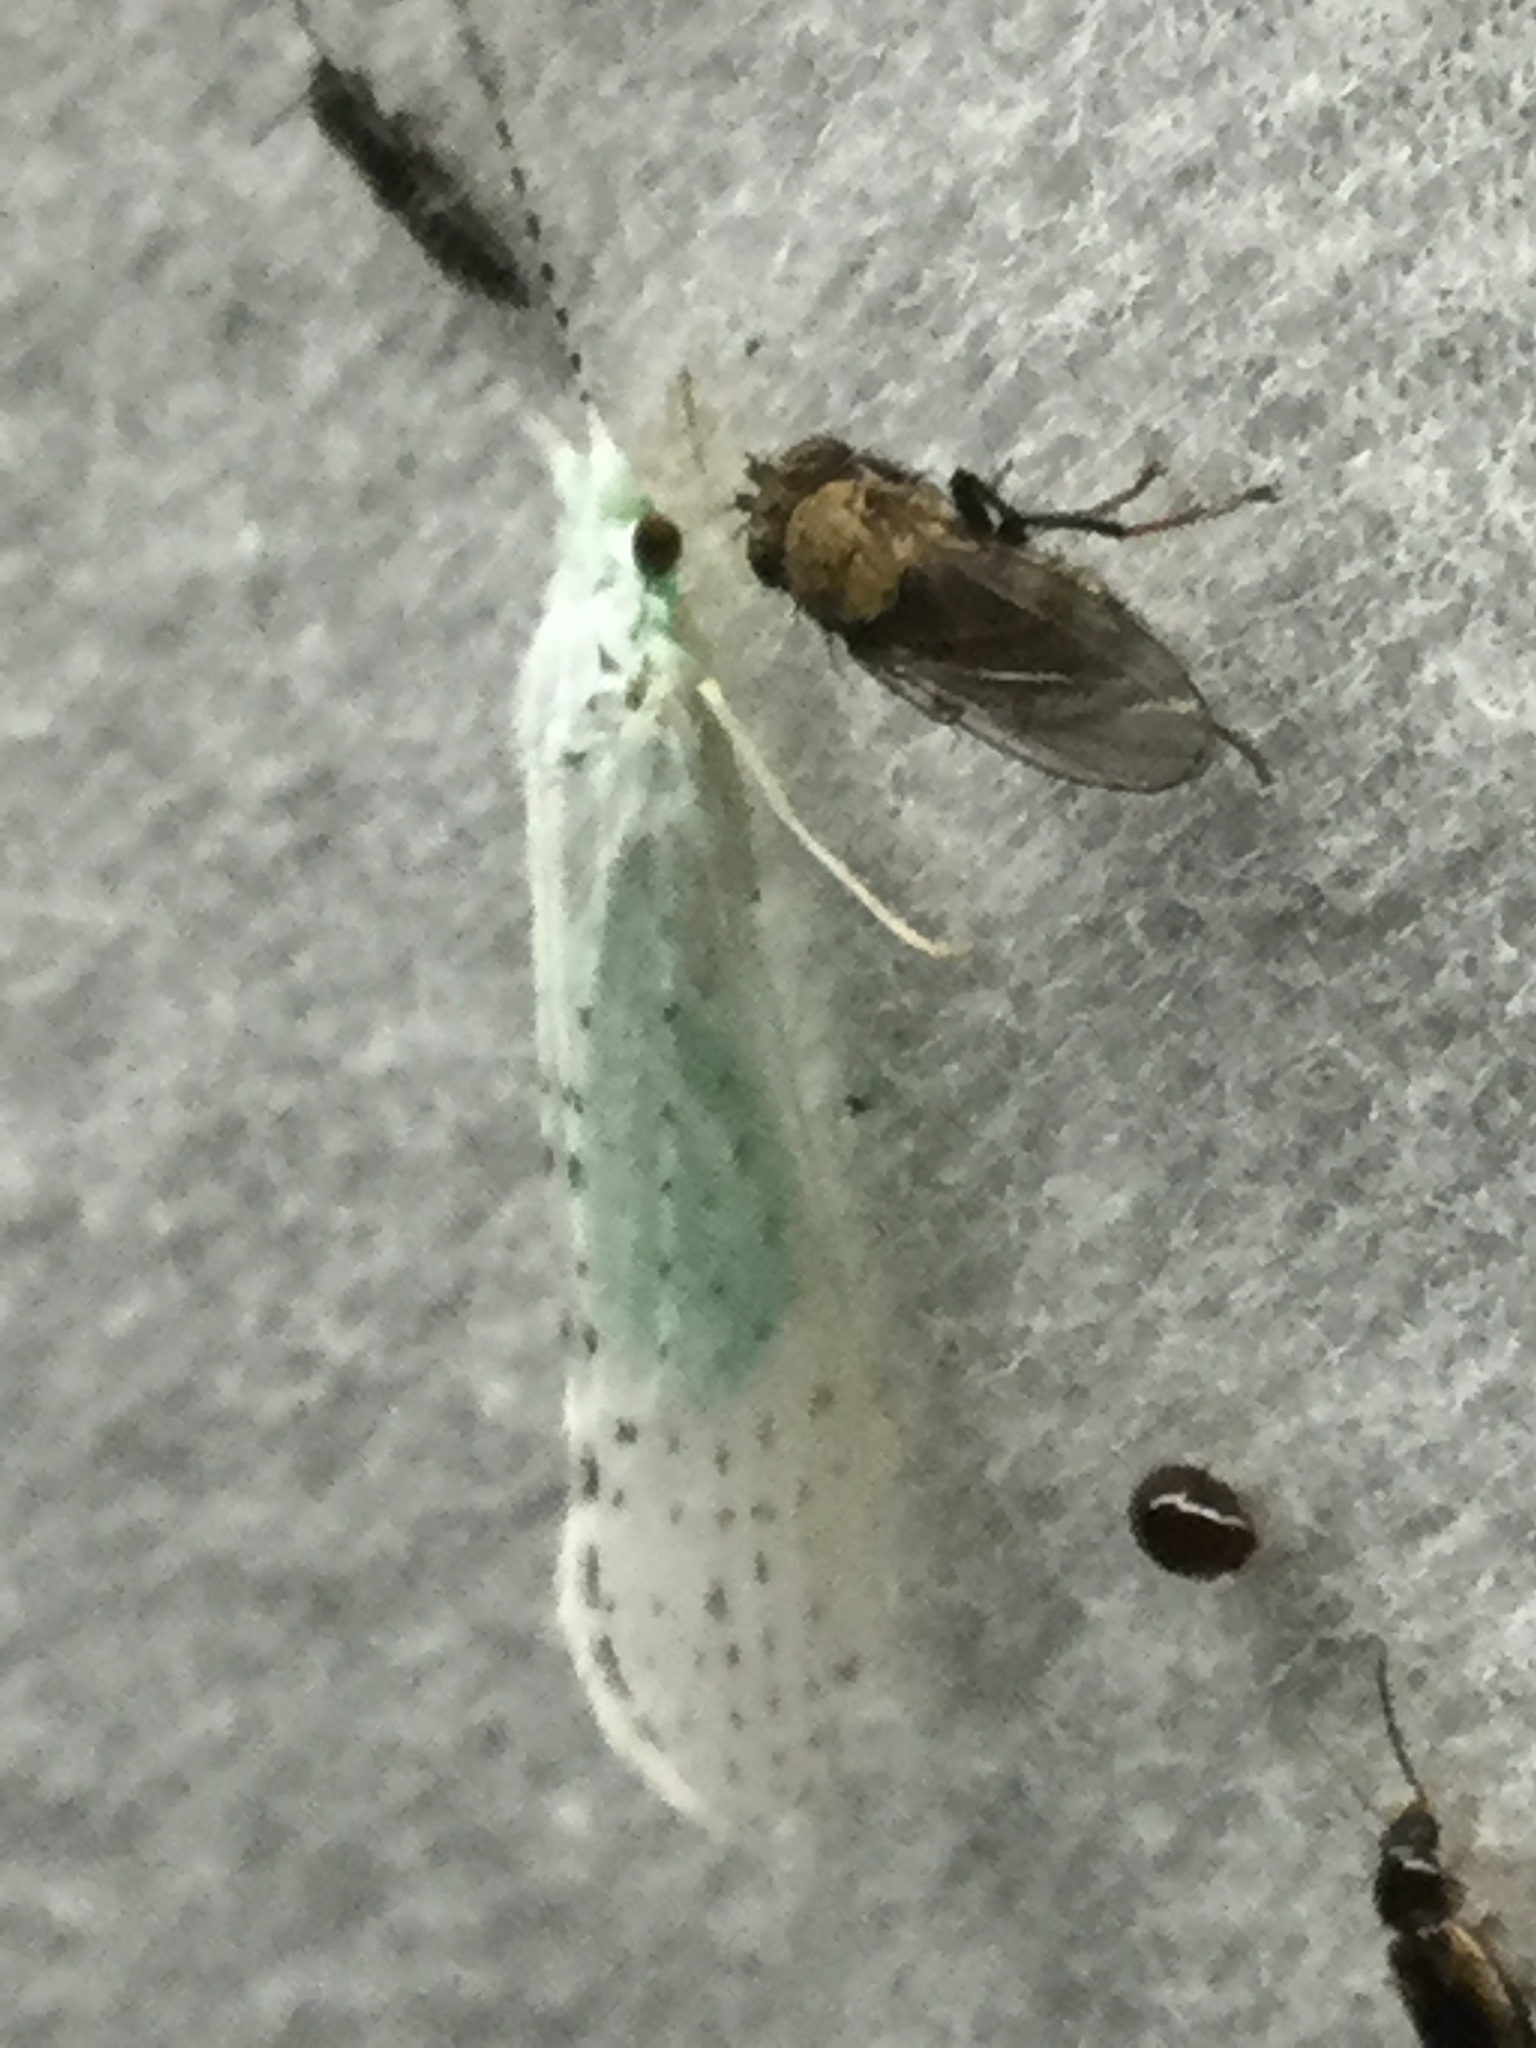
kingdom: Animalia
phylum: Arthropoda
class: Insecta
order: Trichoptera
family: Leptoceridae
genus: Nectopsyche
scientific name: Nectopsyche candida
